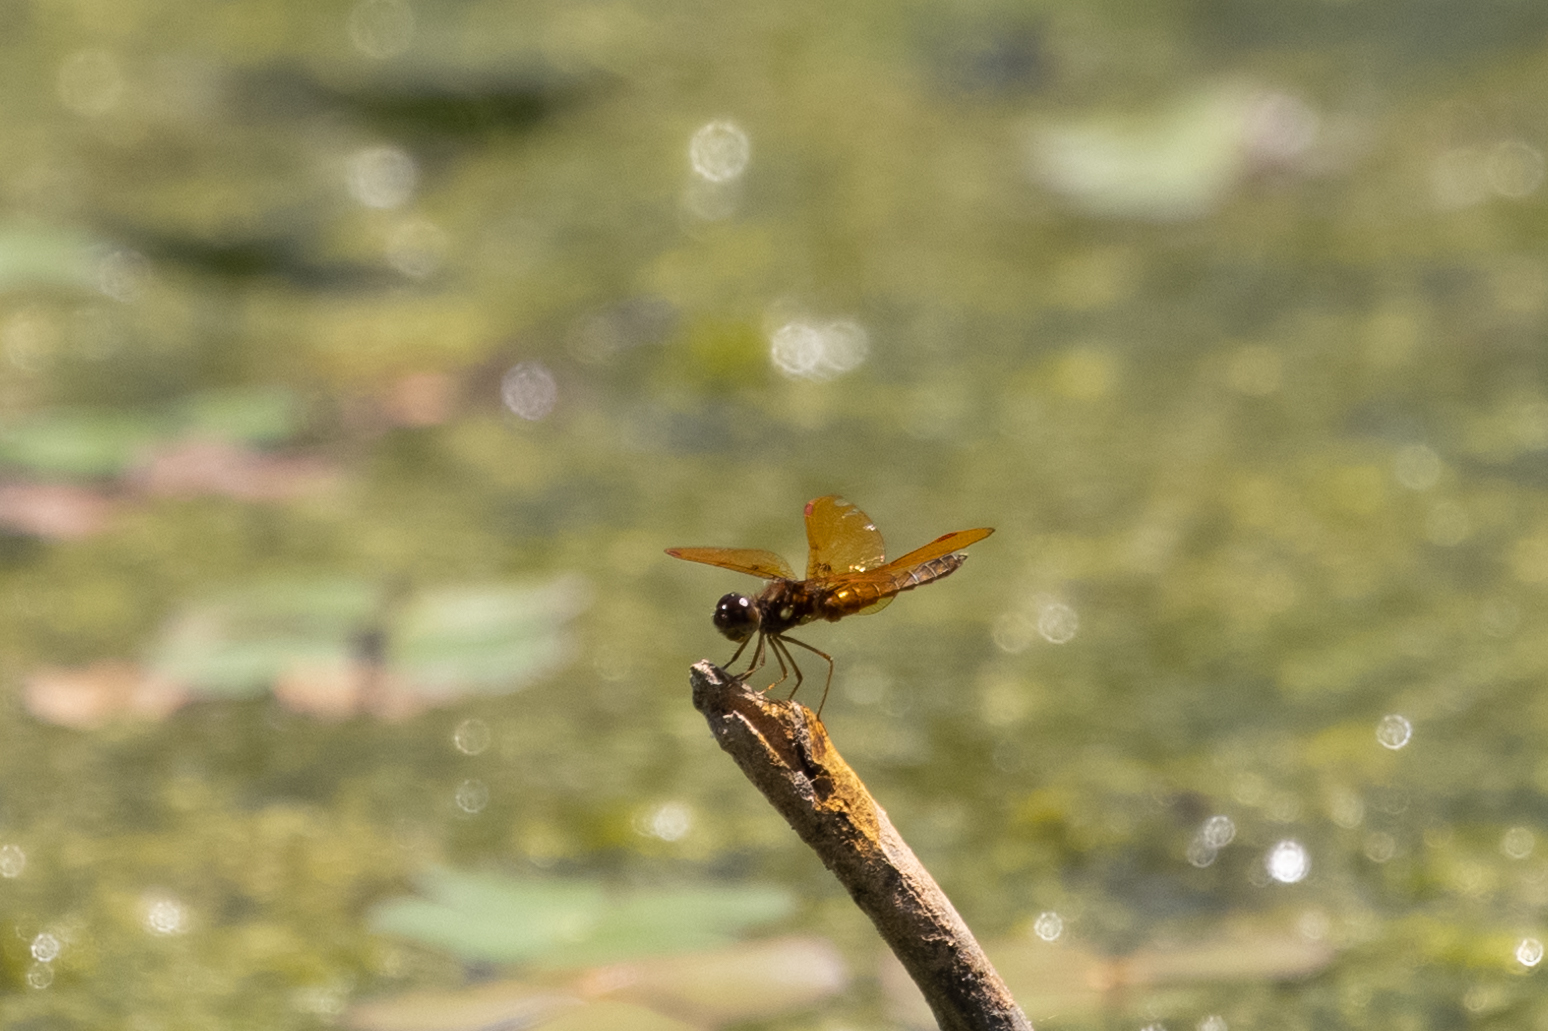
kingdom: Animalia
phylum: Arthropoda
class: Insecta
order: Odonata
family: Libellulidae
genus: Perithemis
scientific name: Perithemis tenera
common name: Eastern amberwing
